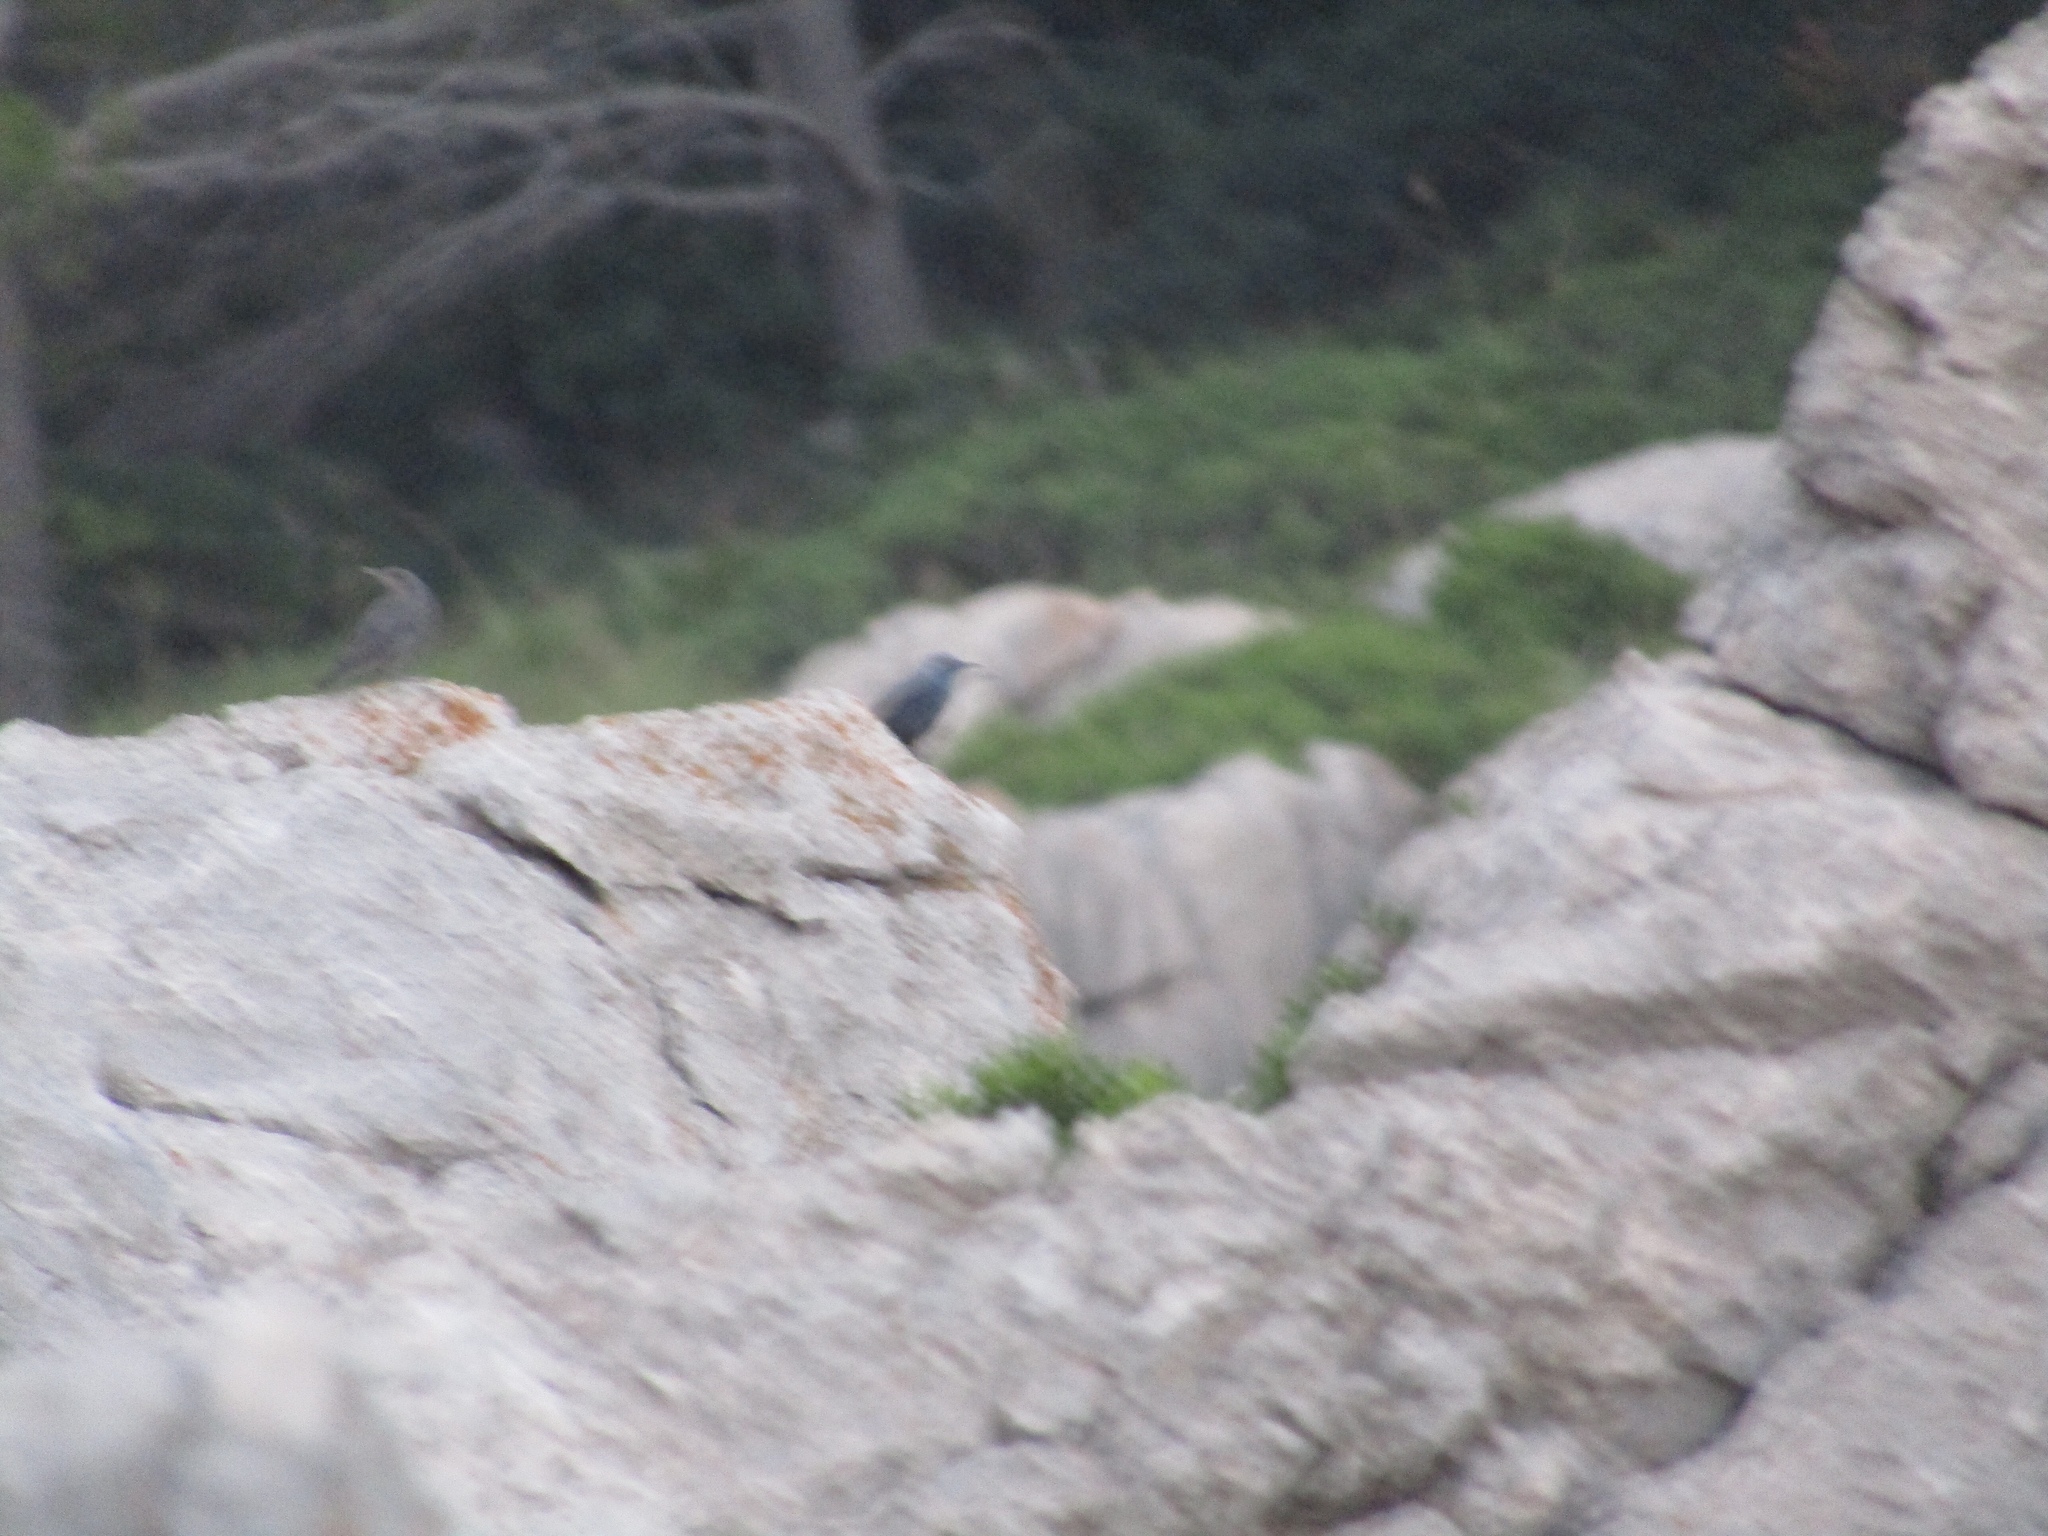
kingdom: Animalia
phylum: Chordata
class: Aves
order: Passeriformes
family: Muscicapidae
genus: Monticola
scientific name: Monticola solitarius
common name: Blue rock thrush
